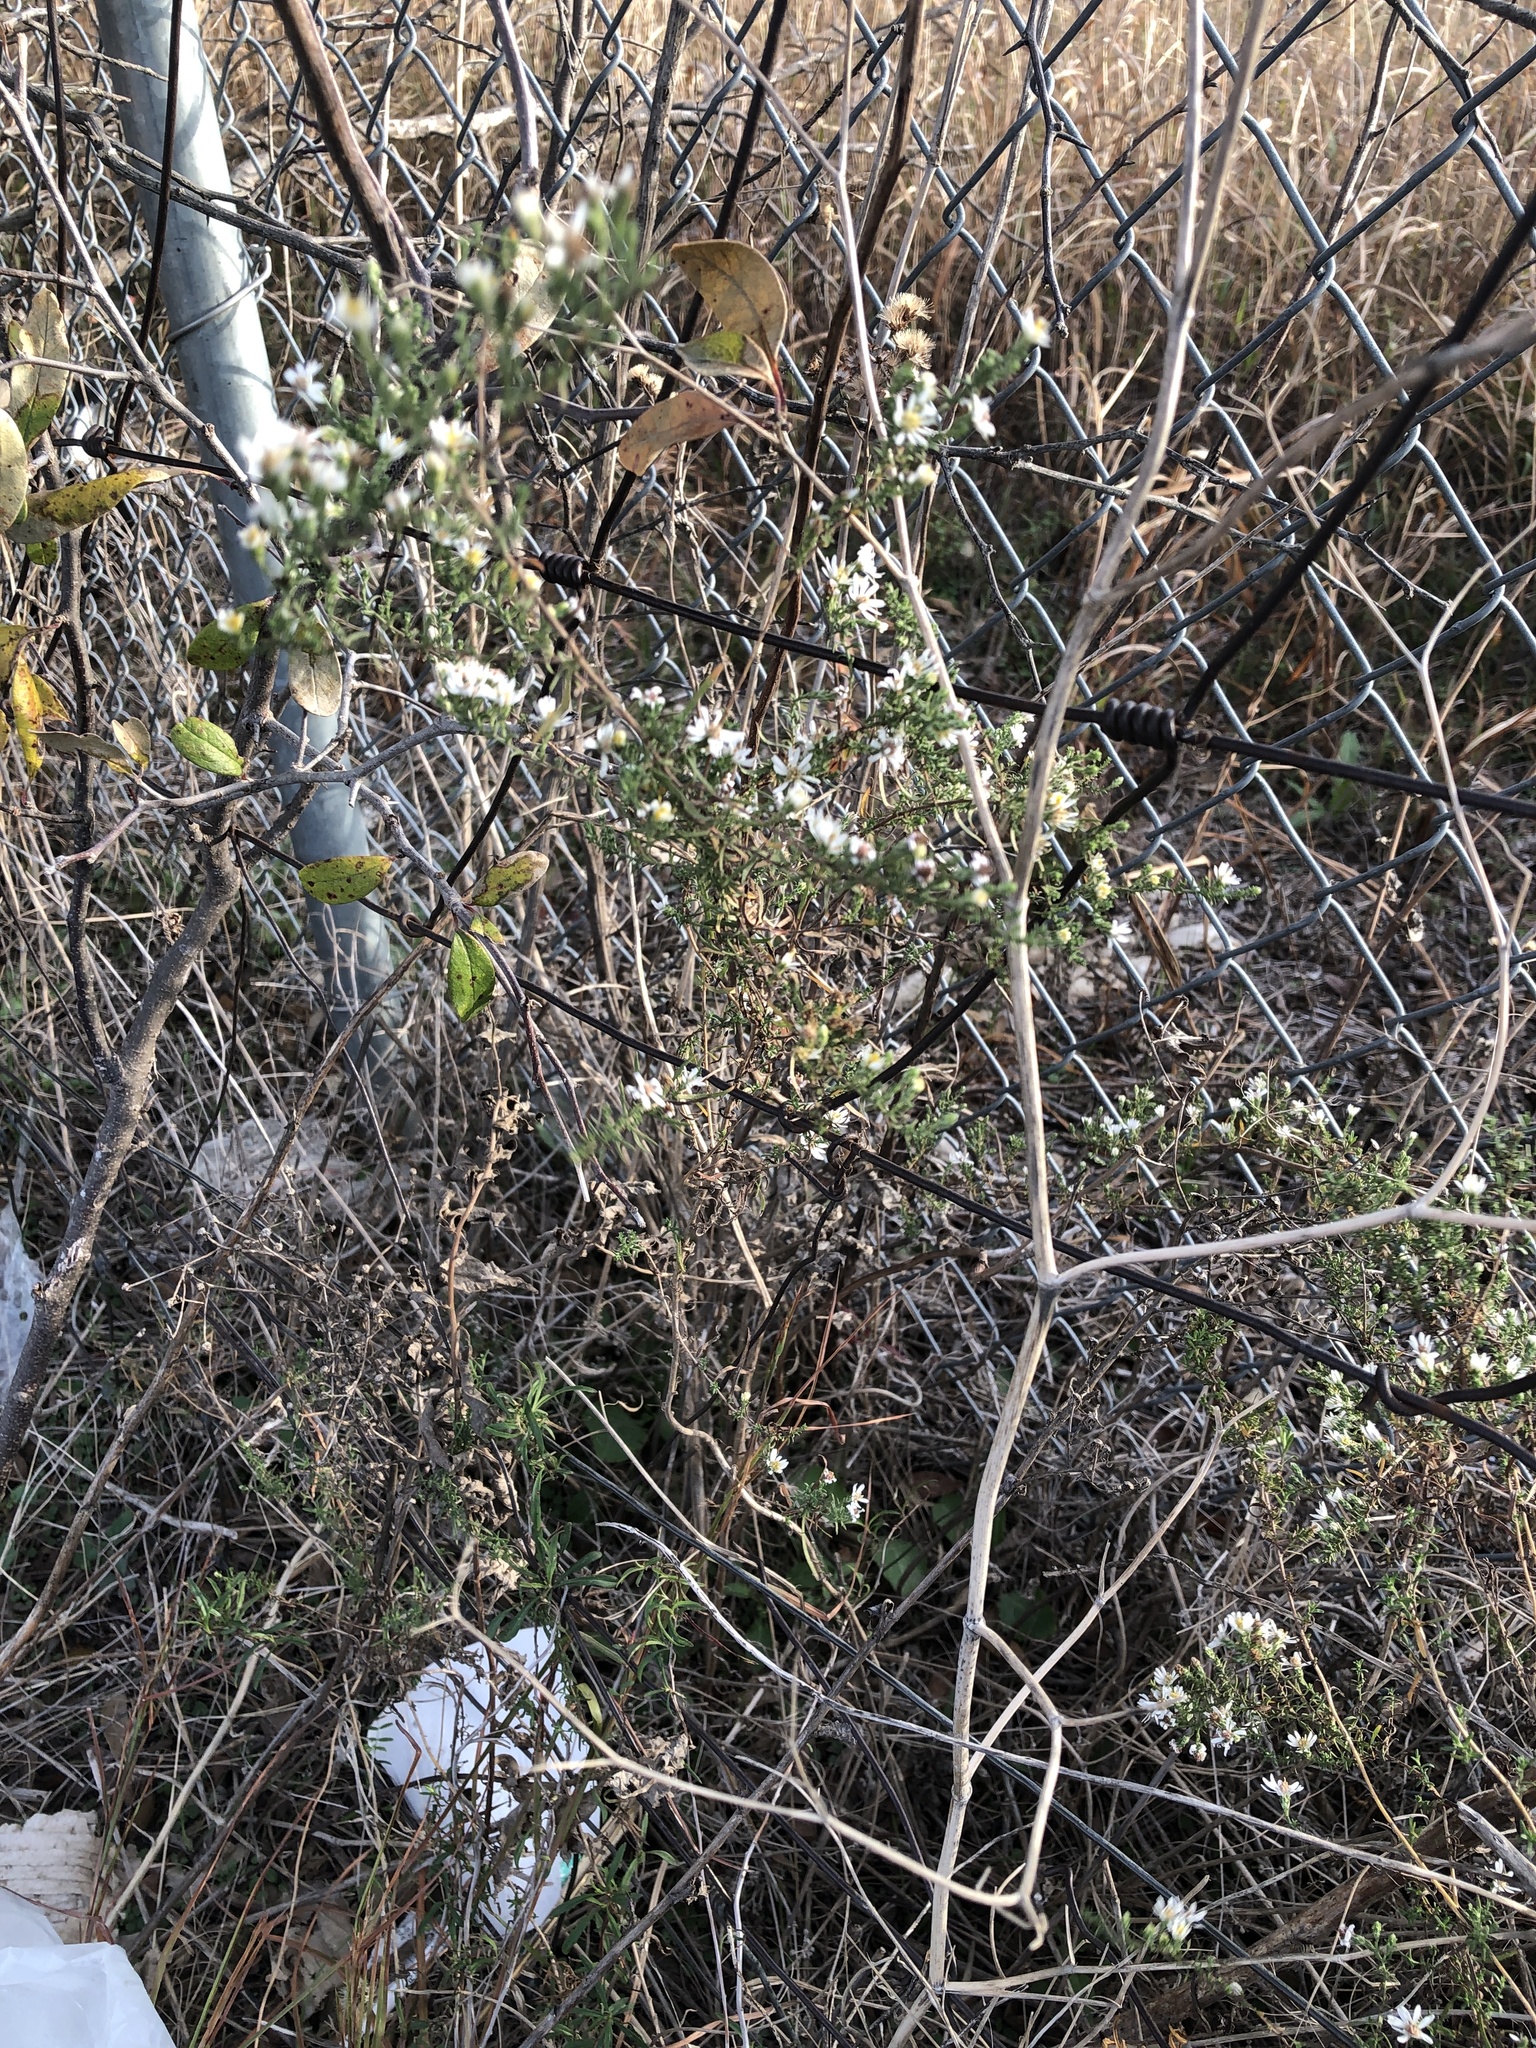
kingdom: Plantae
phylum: Tracheophyta
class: Magnoliopsida
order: Asterales
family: Asteraceae
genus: Symphyotrichum
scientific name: Symphyotrichum ericoides
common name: Heath aster
